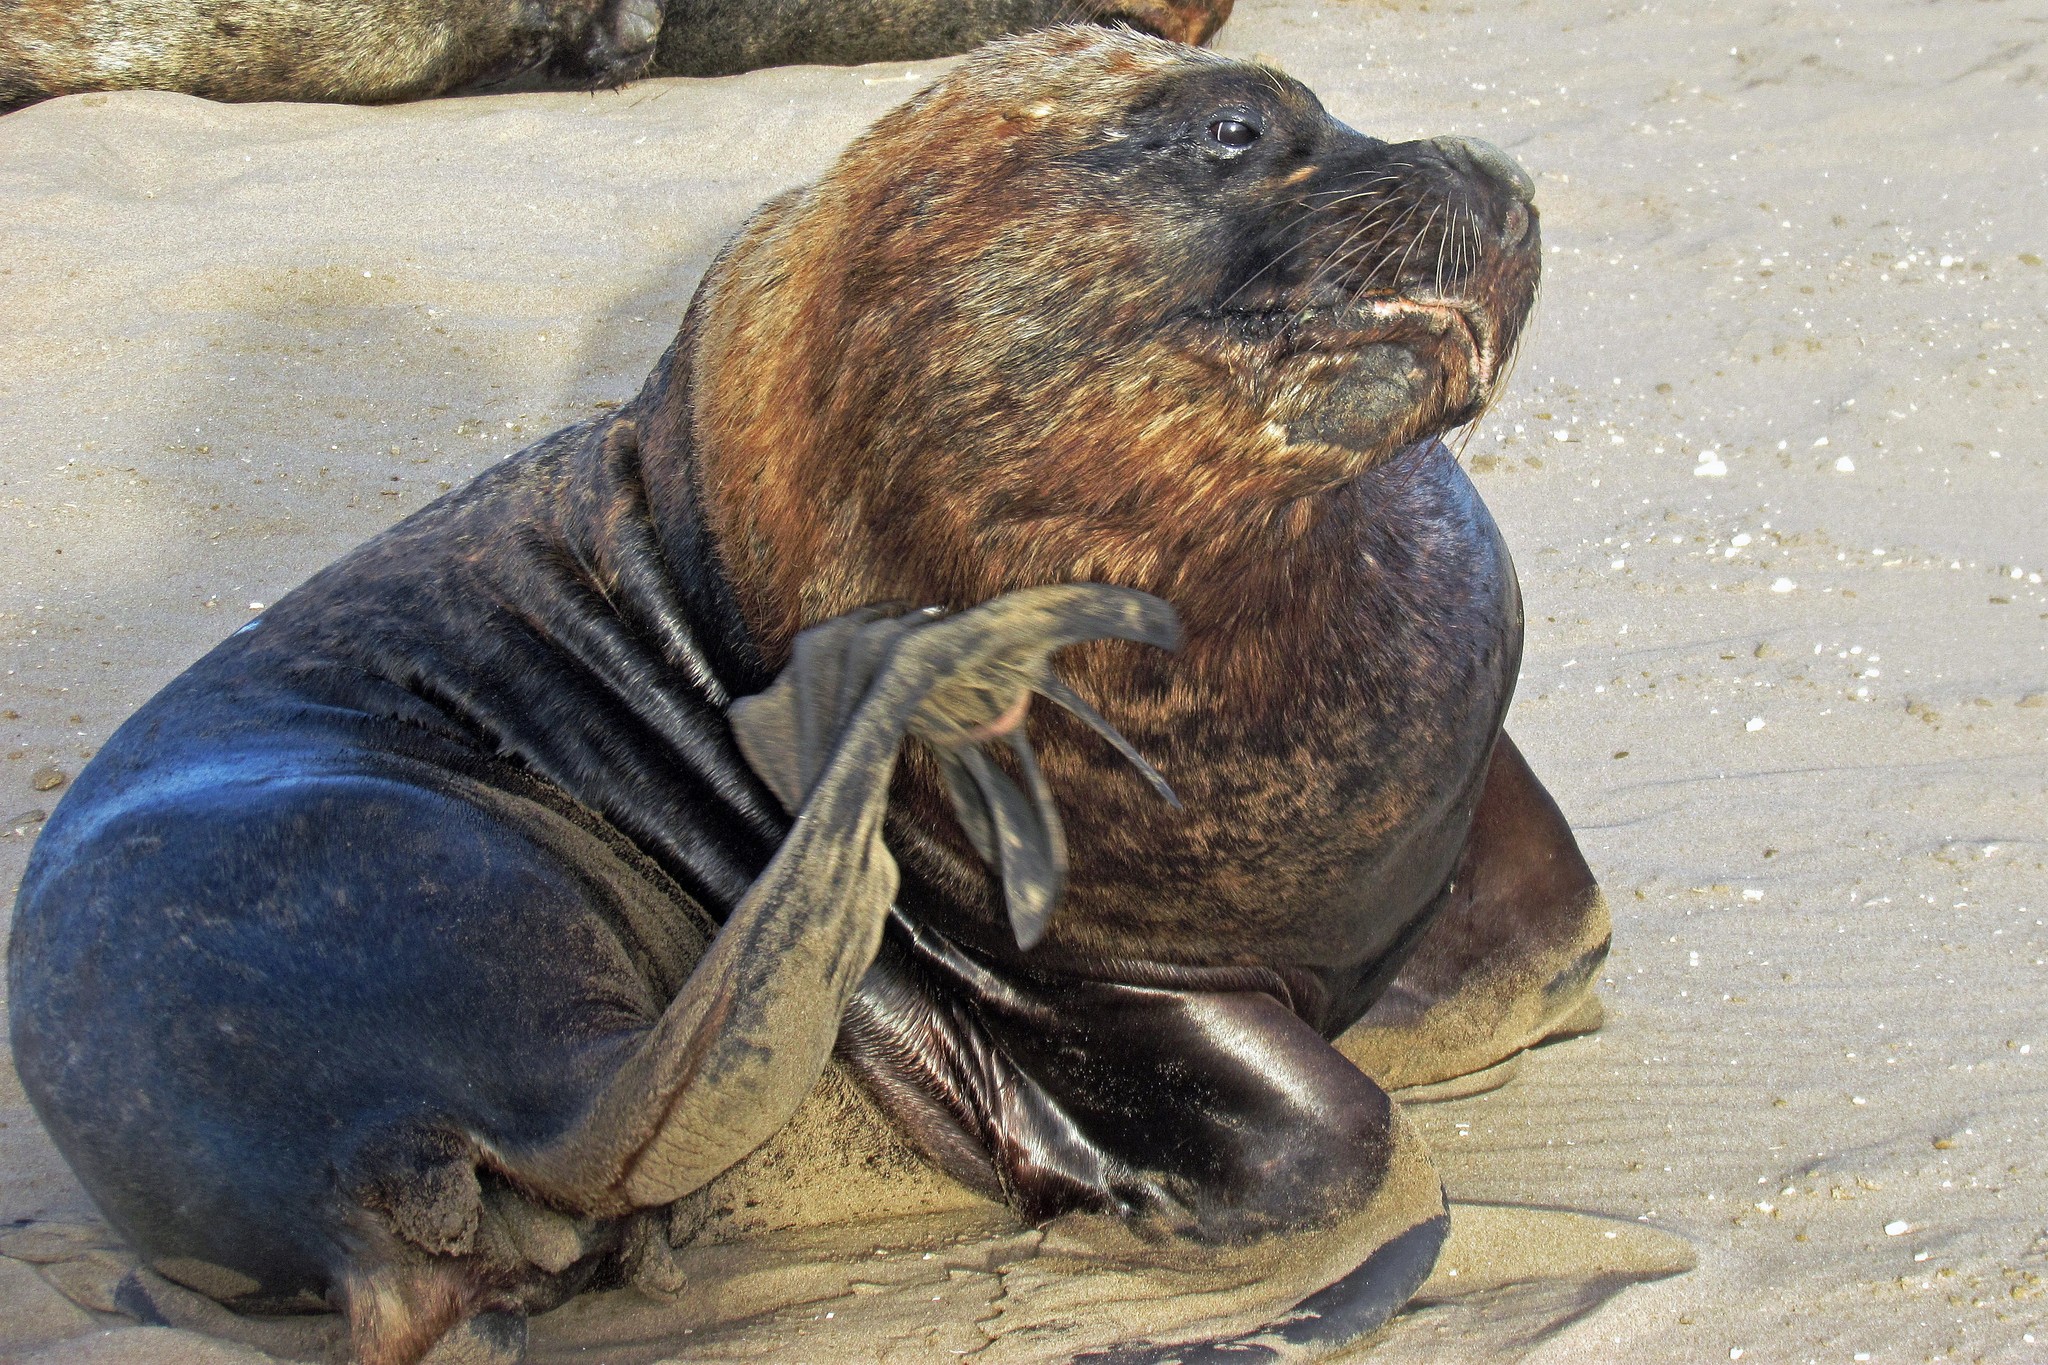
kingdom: Animalia
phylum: Chordata
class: Mammalia
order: Carnivora
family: Otariidae
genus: Otaria
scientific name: Otaria byronia
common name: South american sea lion
